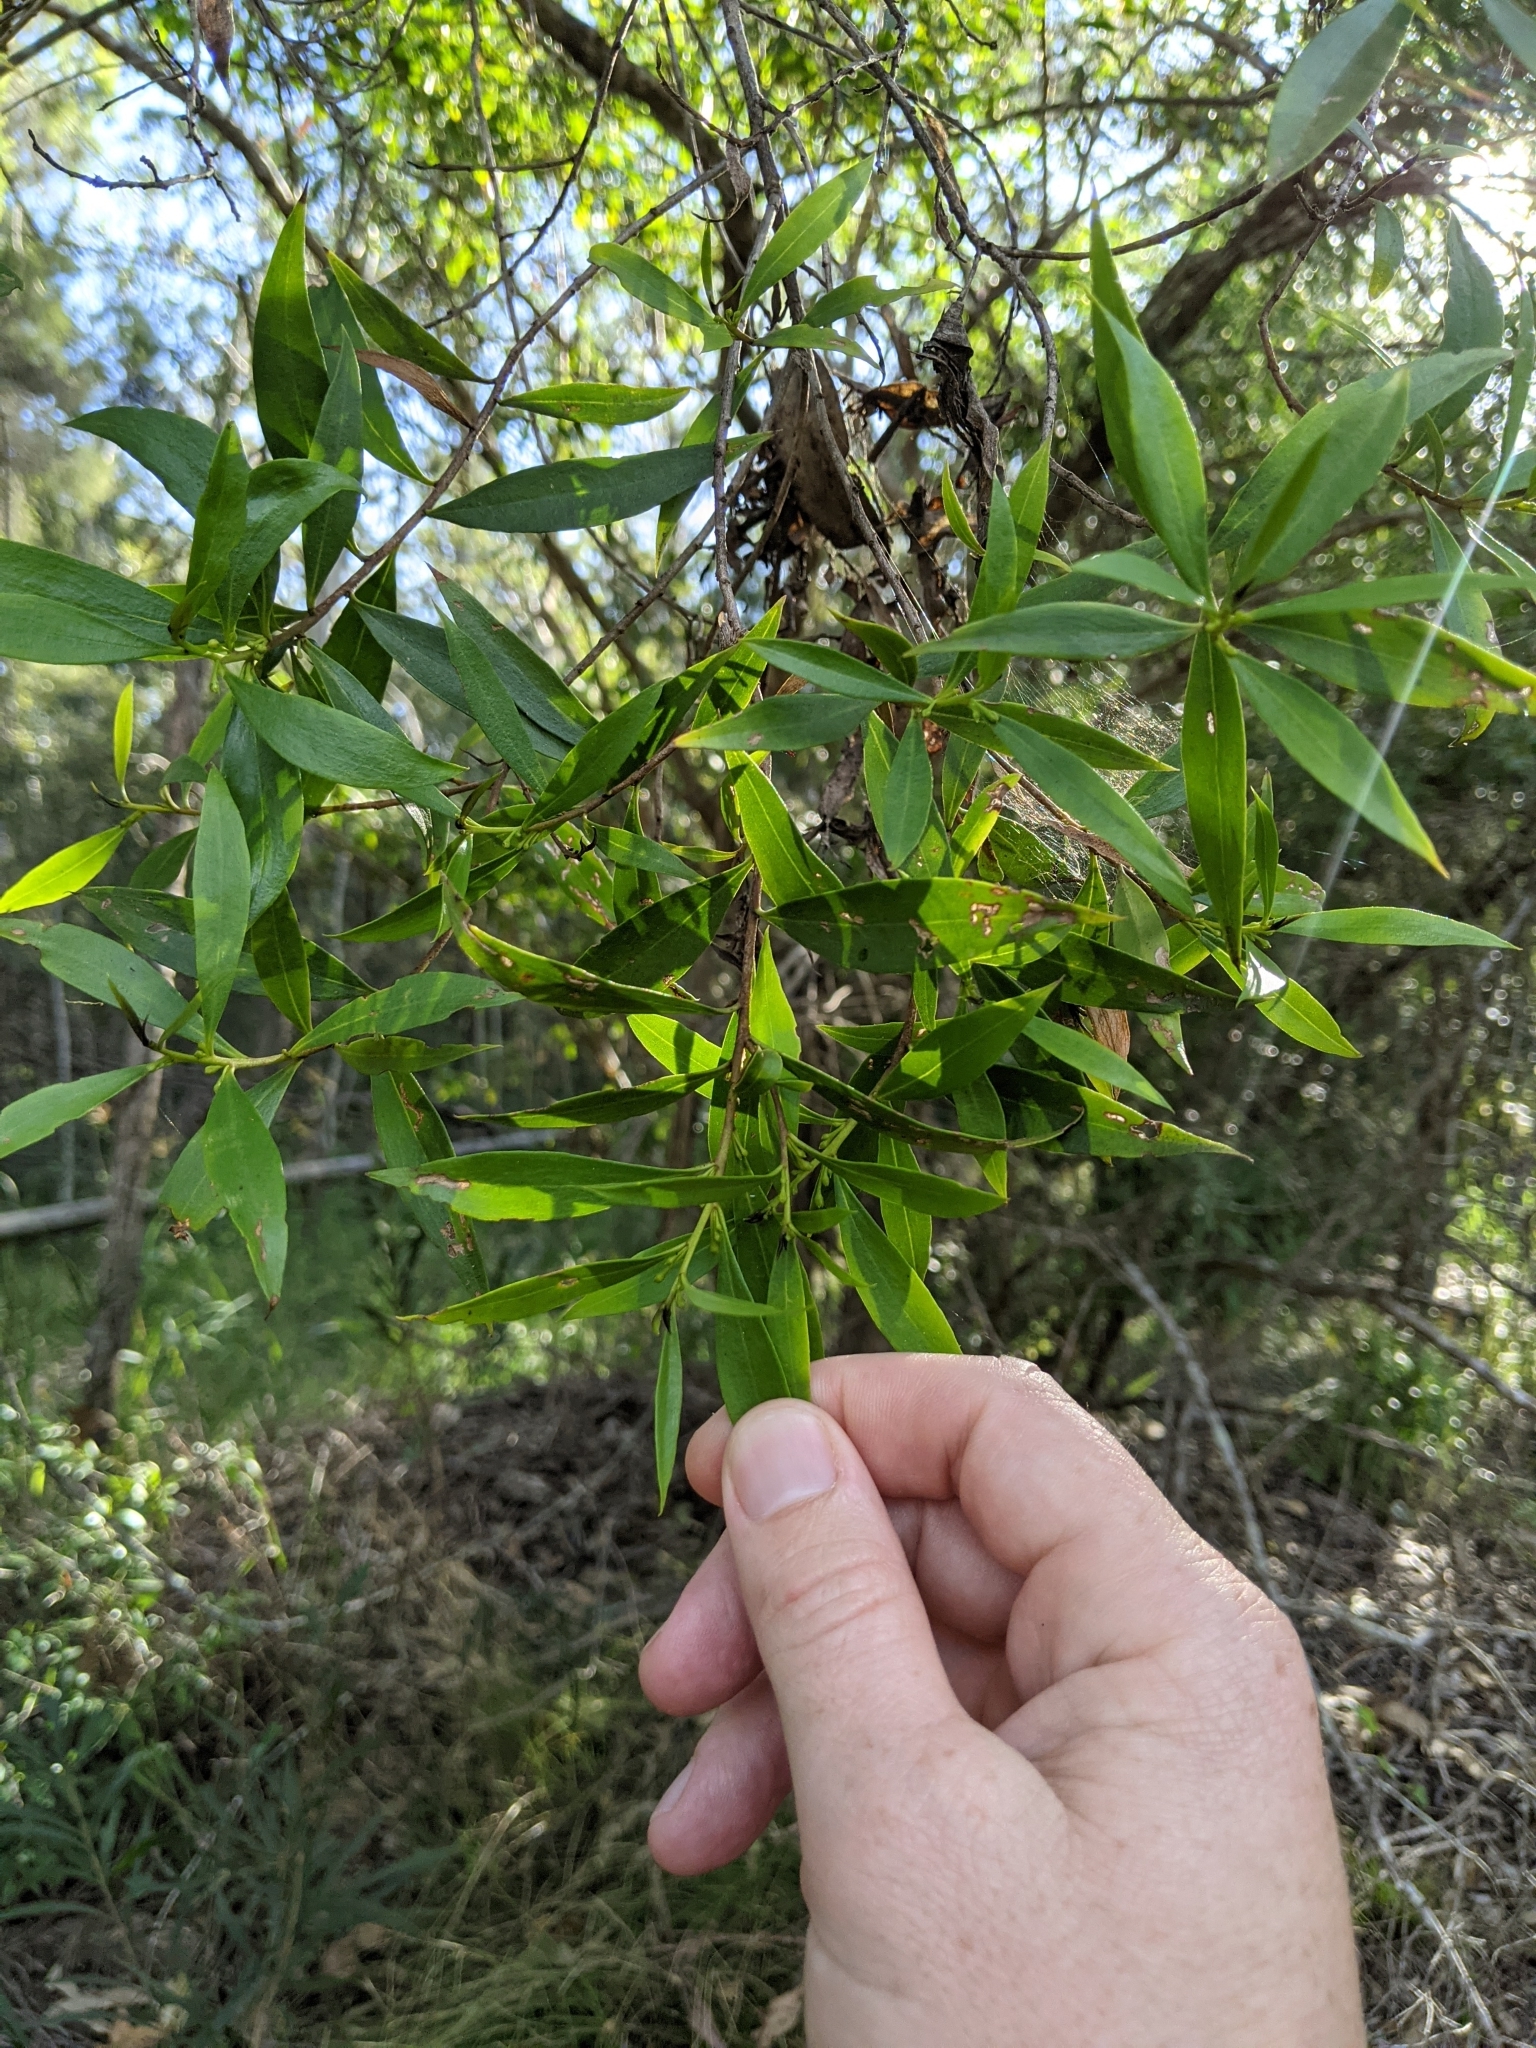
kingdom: Plantae
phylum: Tracheophyta
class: Magnoliopsida
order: Lamiales
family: Scrophulariaceae
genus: Myoporum
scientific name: Myoporum acuminatum
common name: Pointed boobialla
